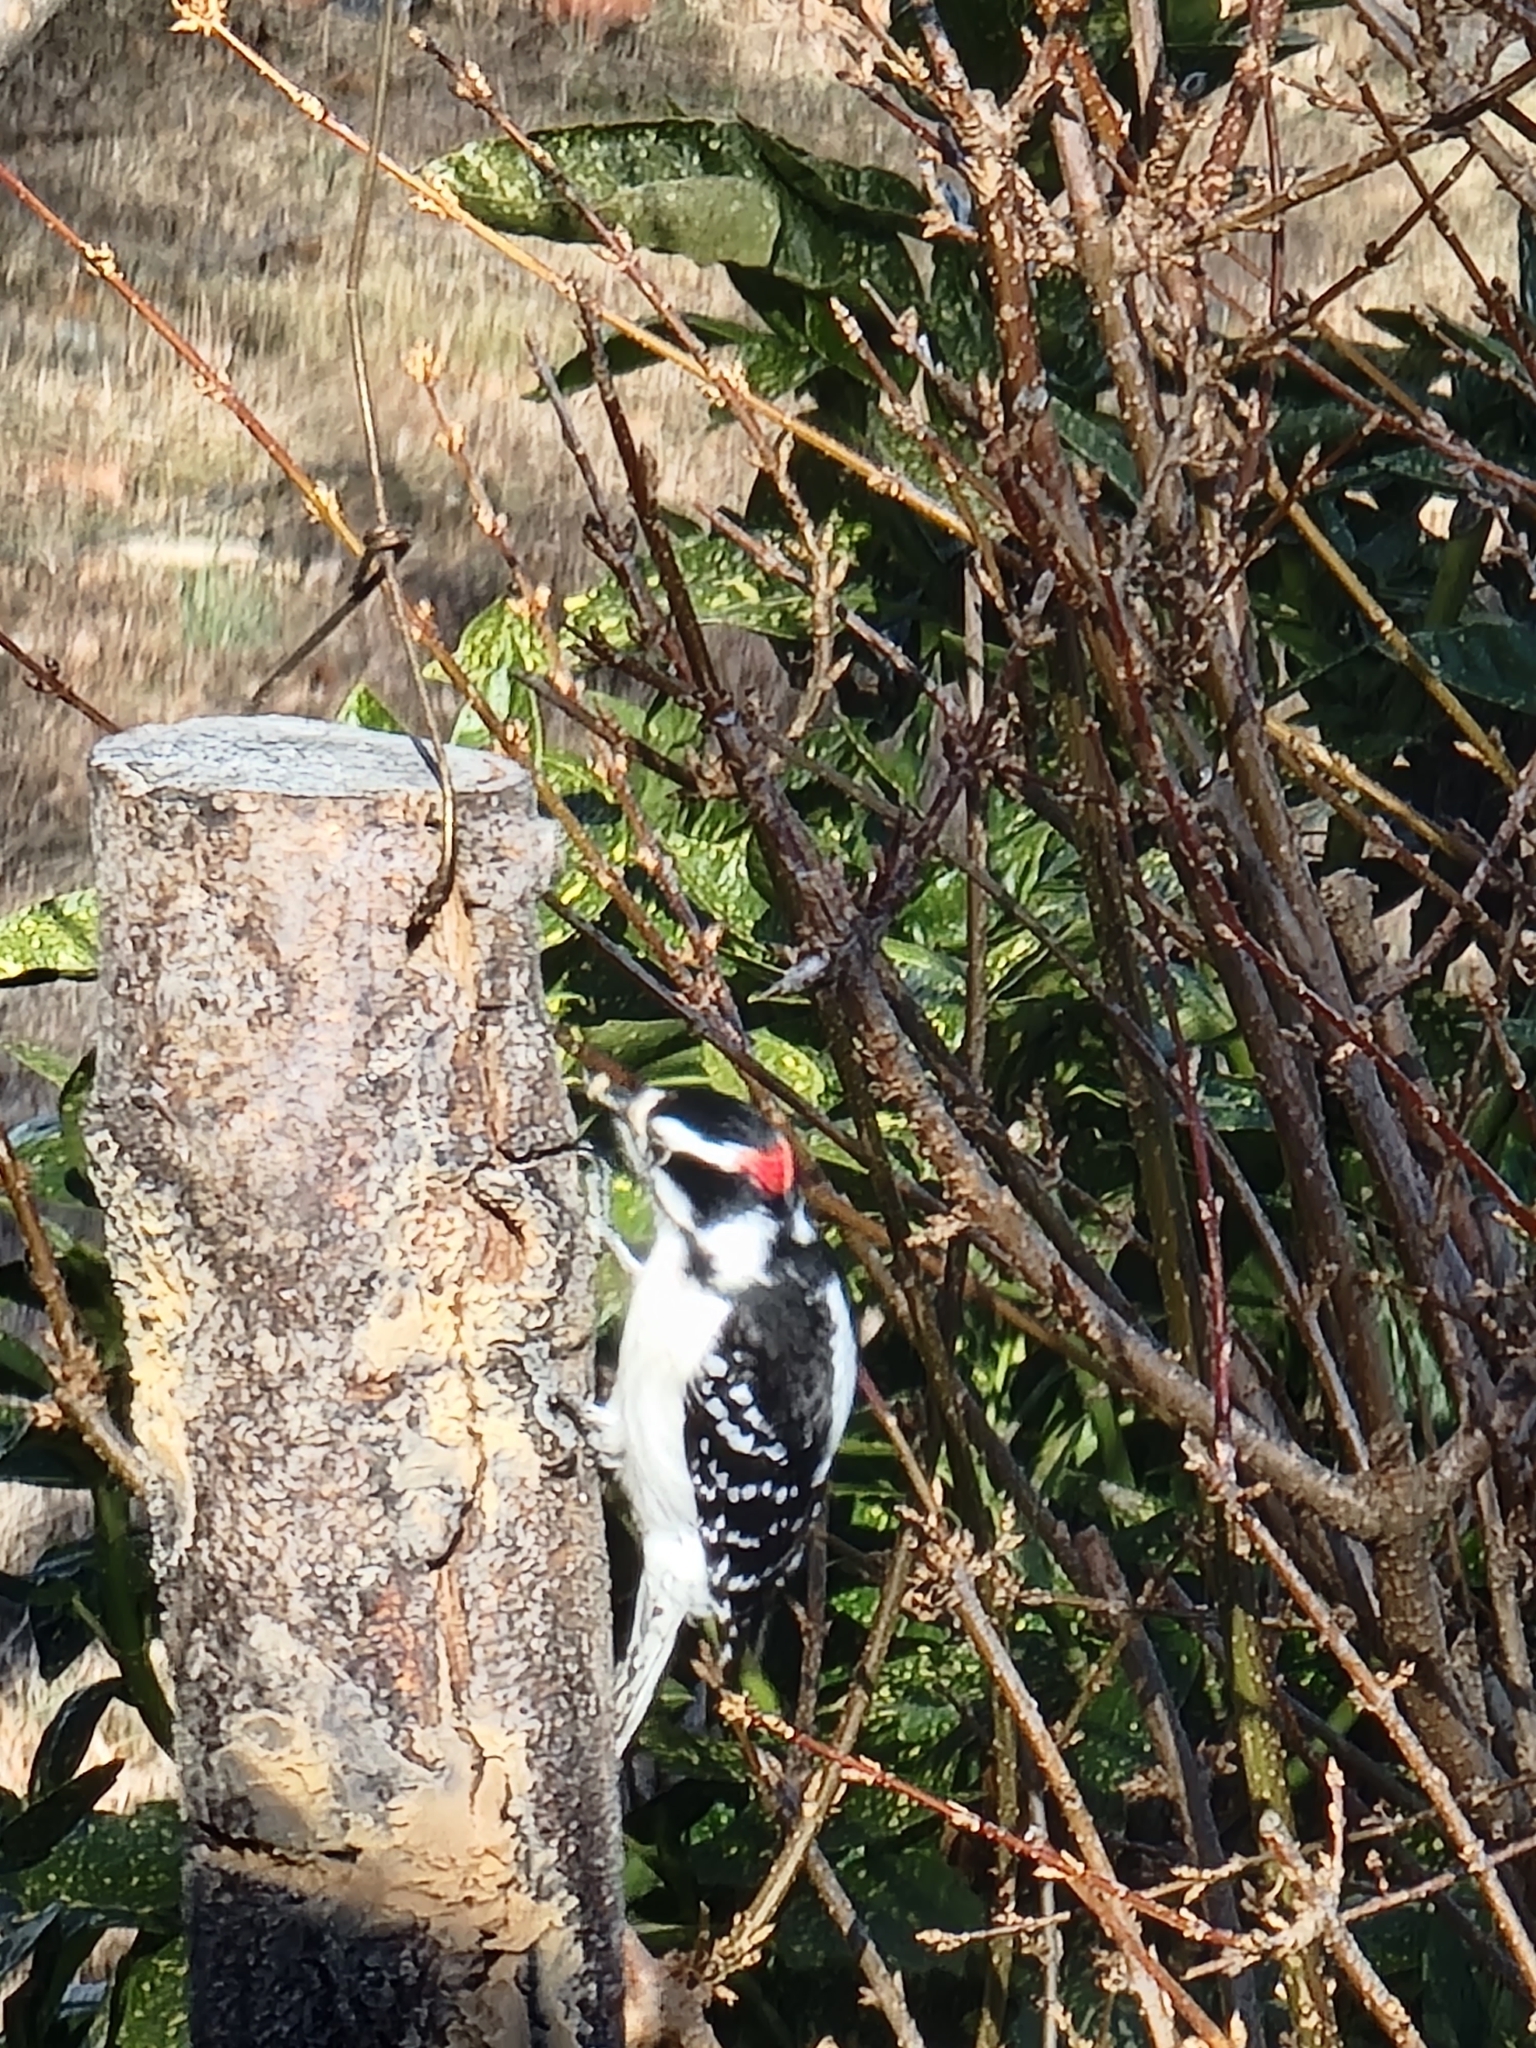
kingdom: Animalia
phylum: Chordata
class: Aves
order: Piciformes
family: Picidae
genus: Dryobates
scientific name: Dryobates pubescens
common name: Downy woodpecker
